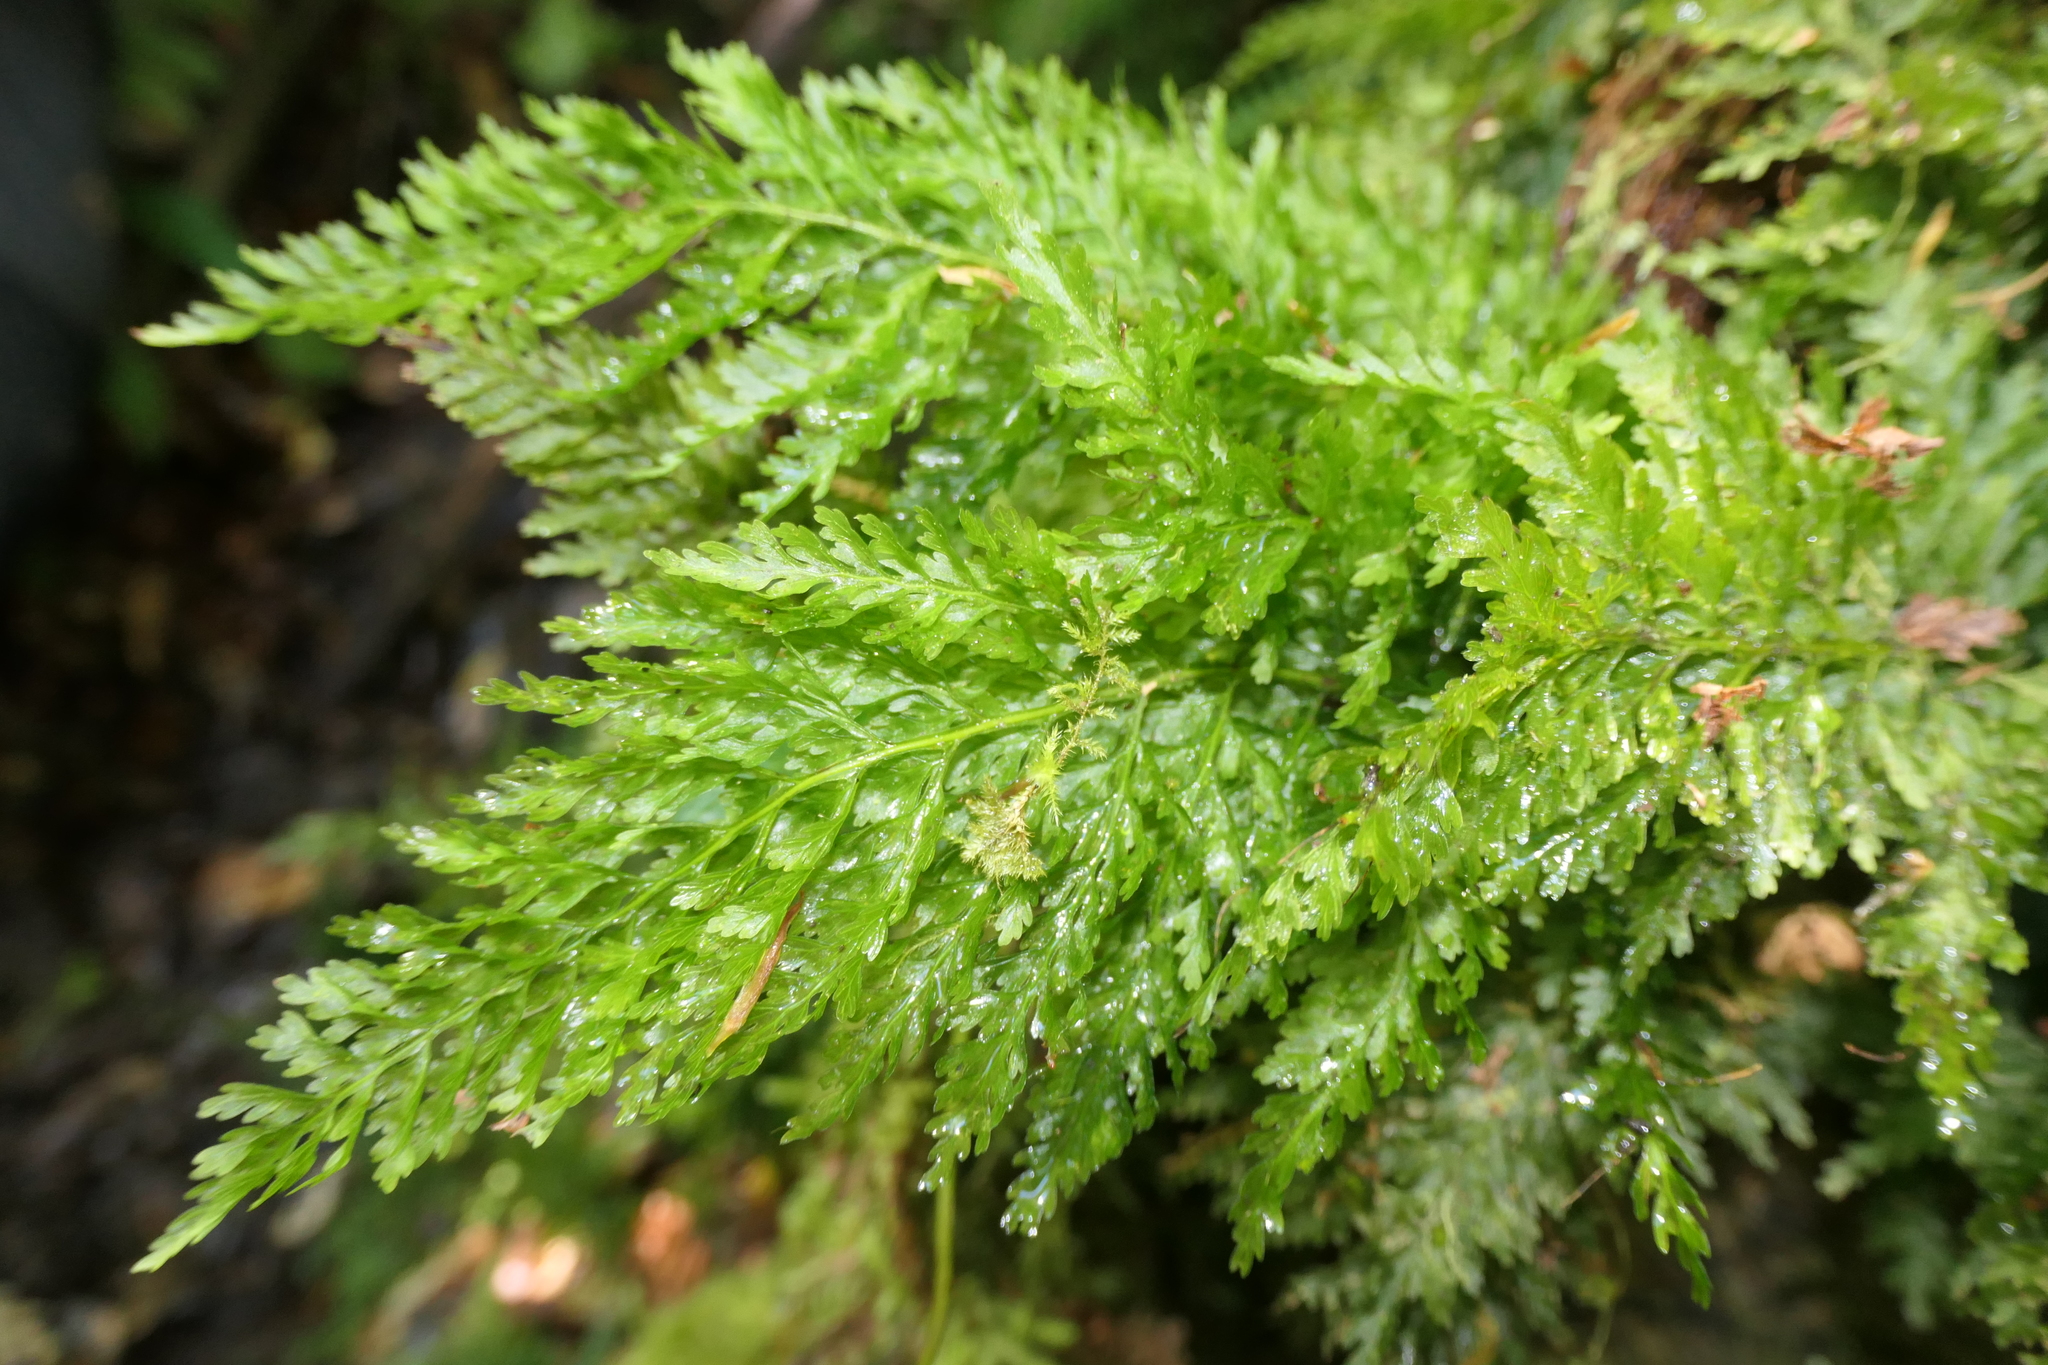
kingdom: Plantae
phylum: Tracheophyta
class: Polypodiopsida
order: Hymenophyllales
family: Hymenophyllaceae
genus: Vandenboschia
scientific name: Vandenboschia speciosa
